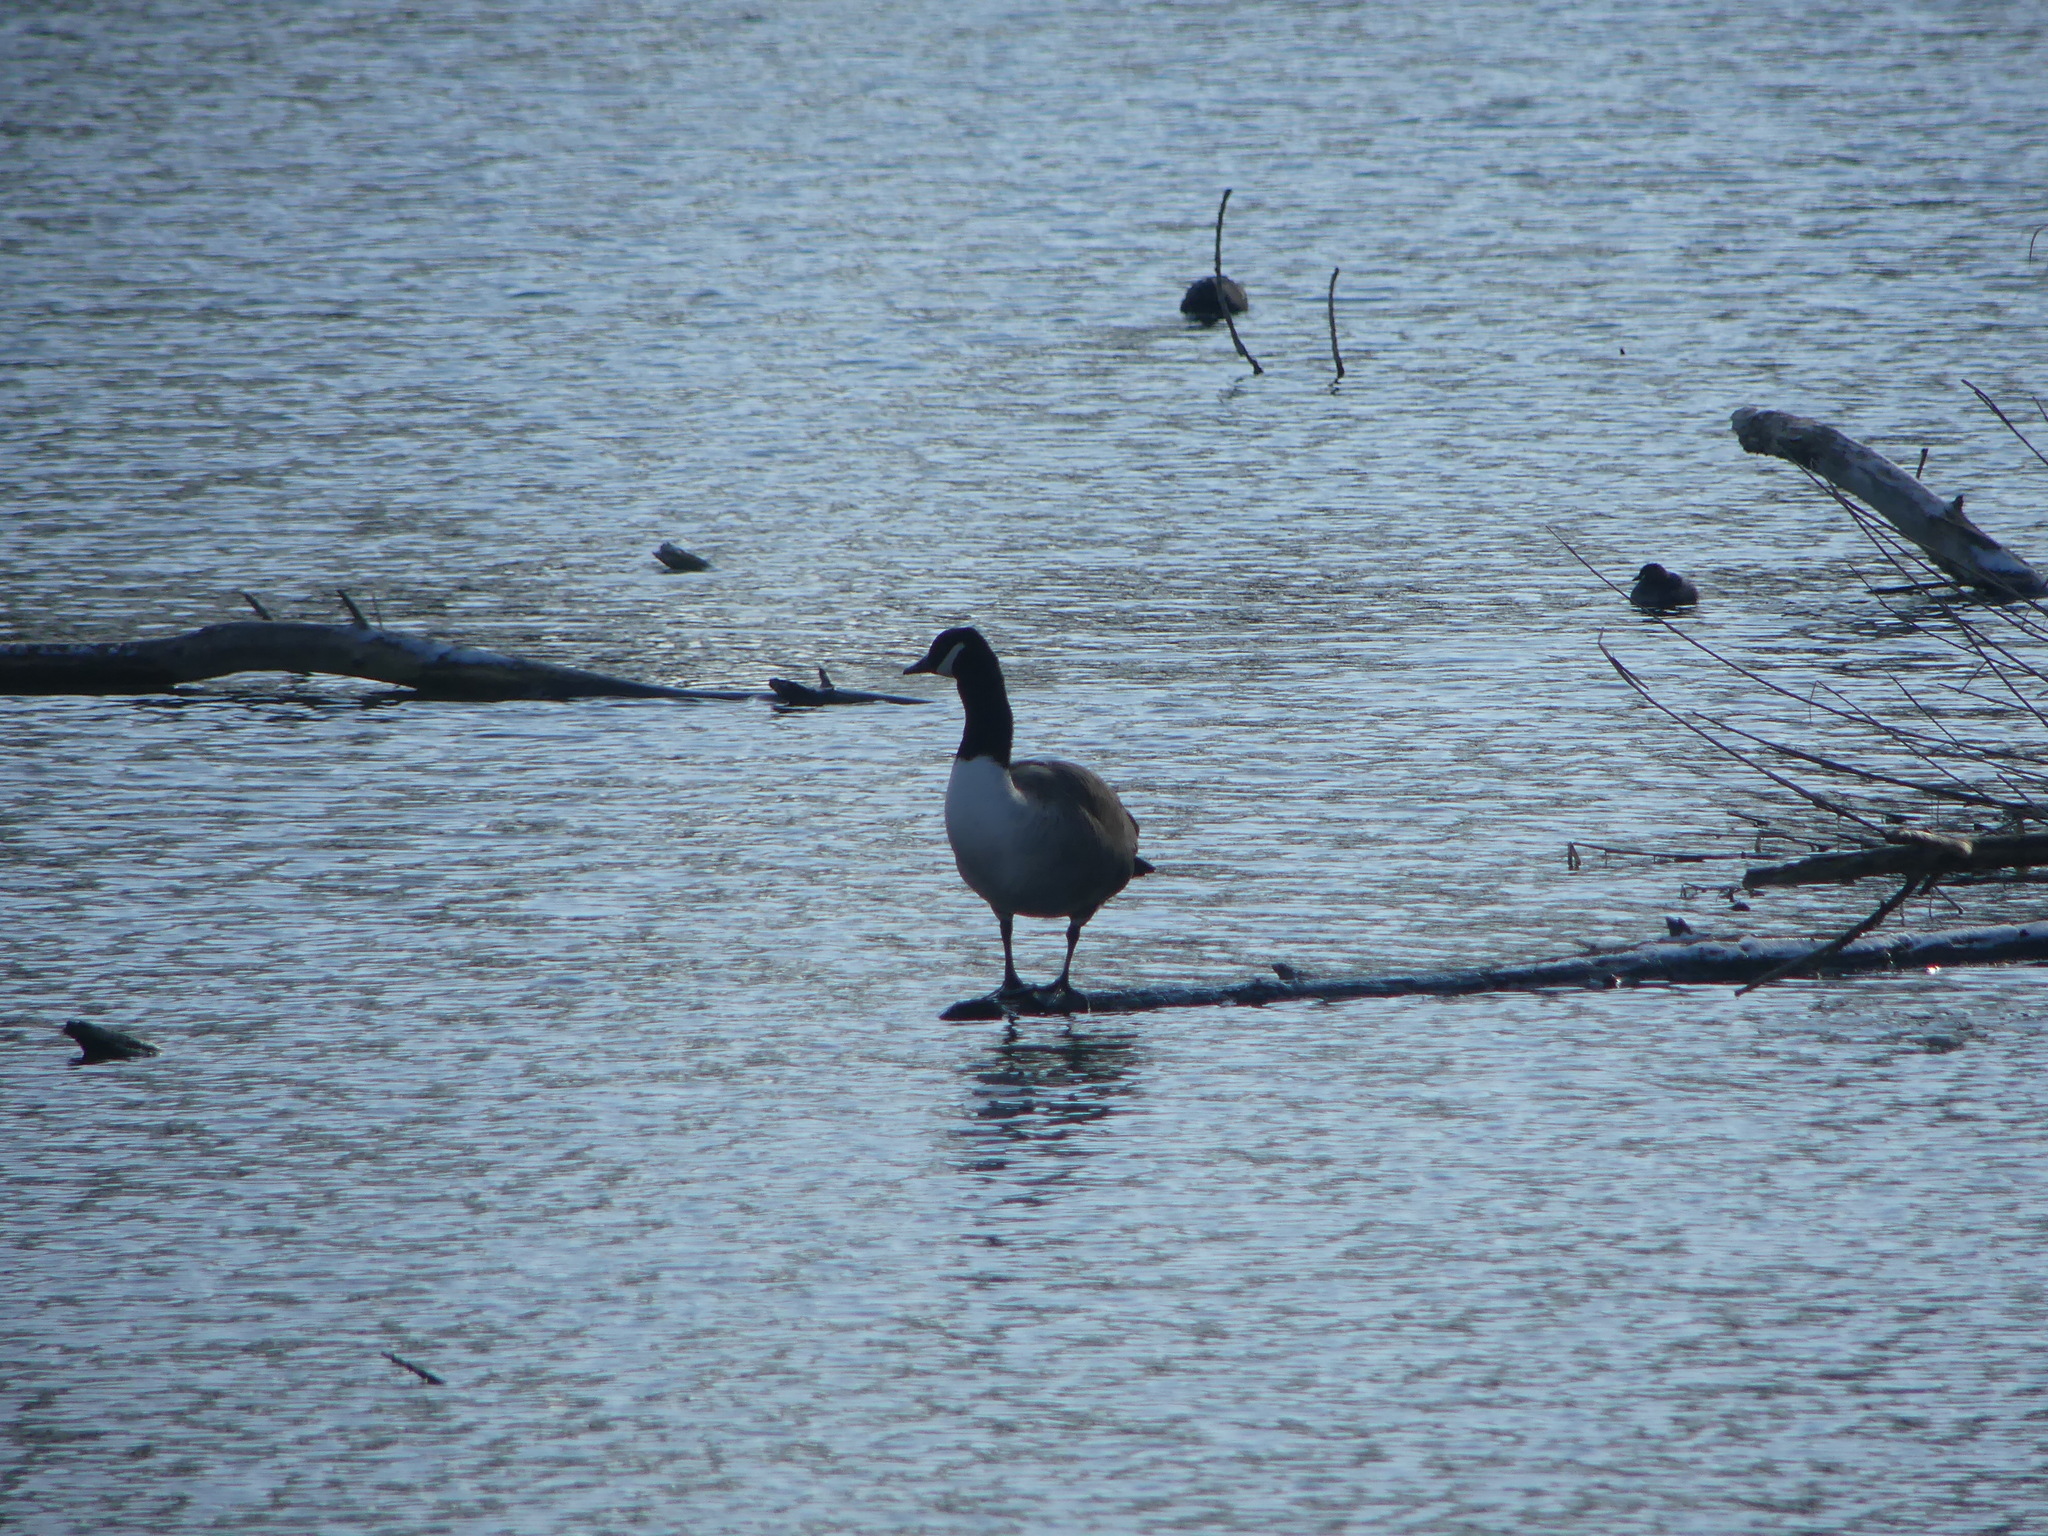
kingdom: Animalia
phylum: Chordata
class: Aves
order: Anseriformes
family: Anatidae
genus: Branta
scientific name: Branta canadensis
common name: Canada goose
